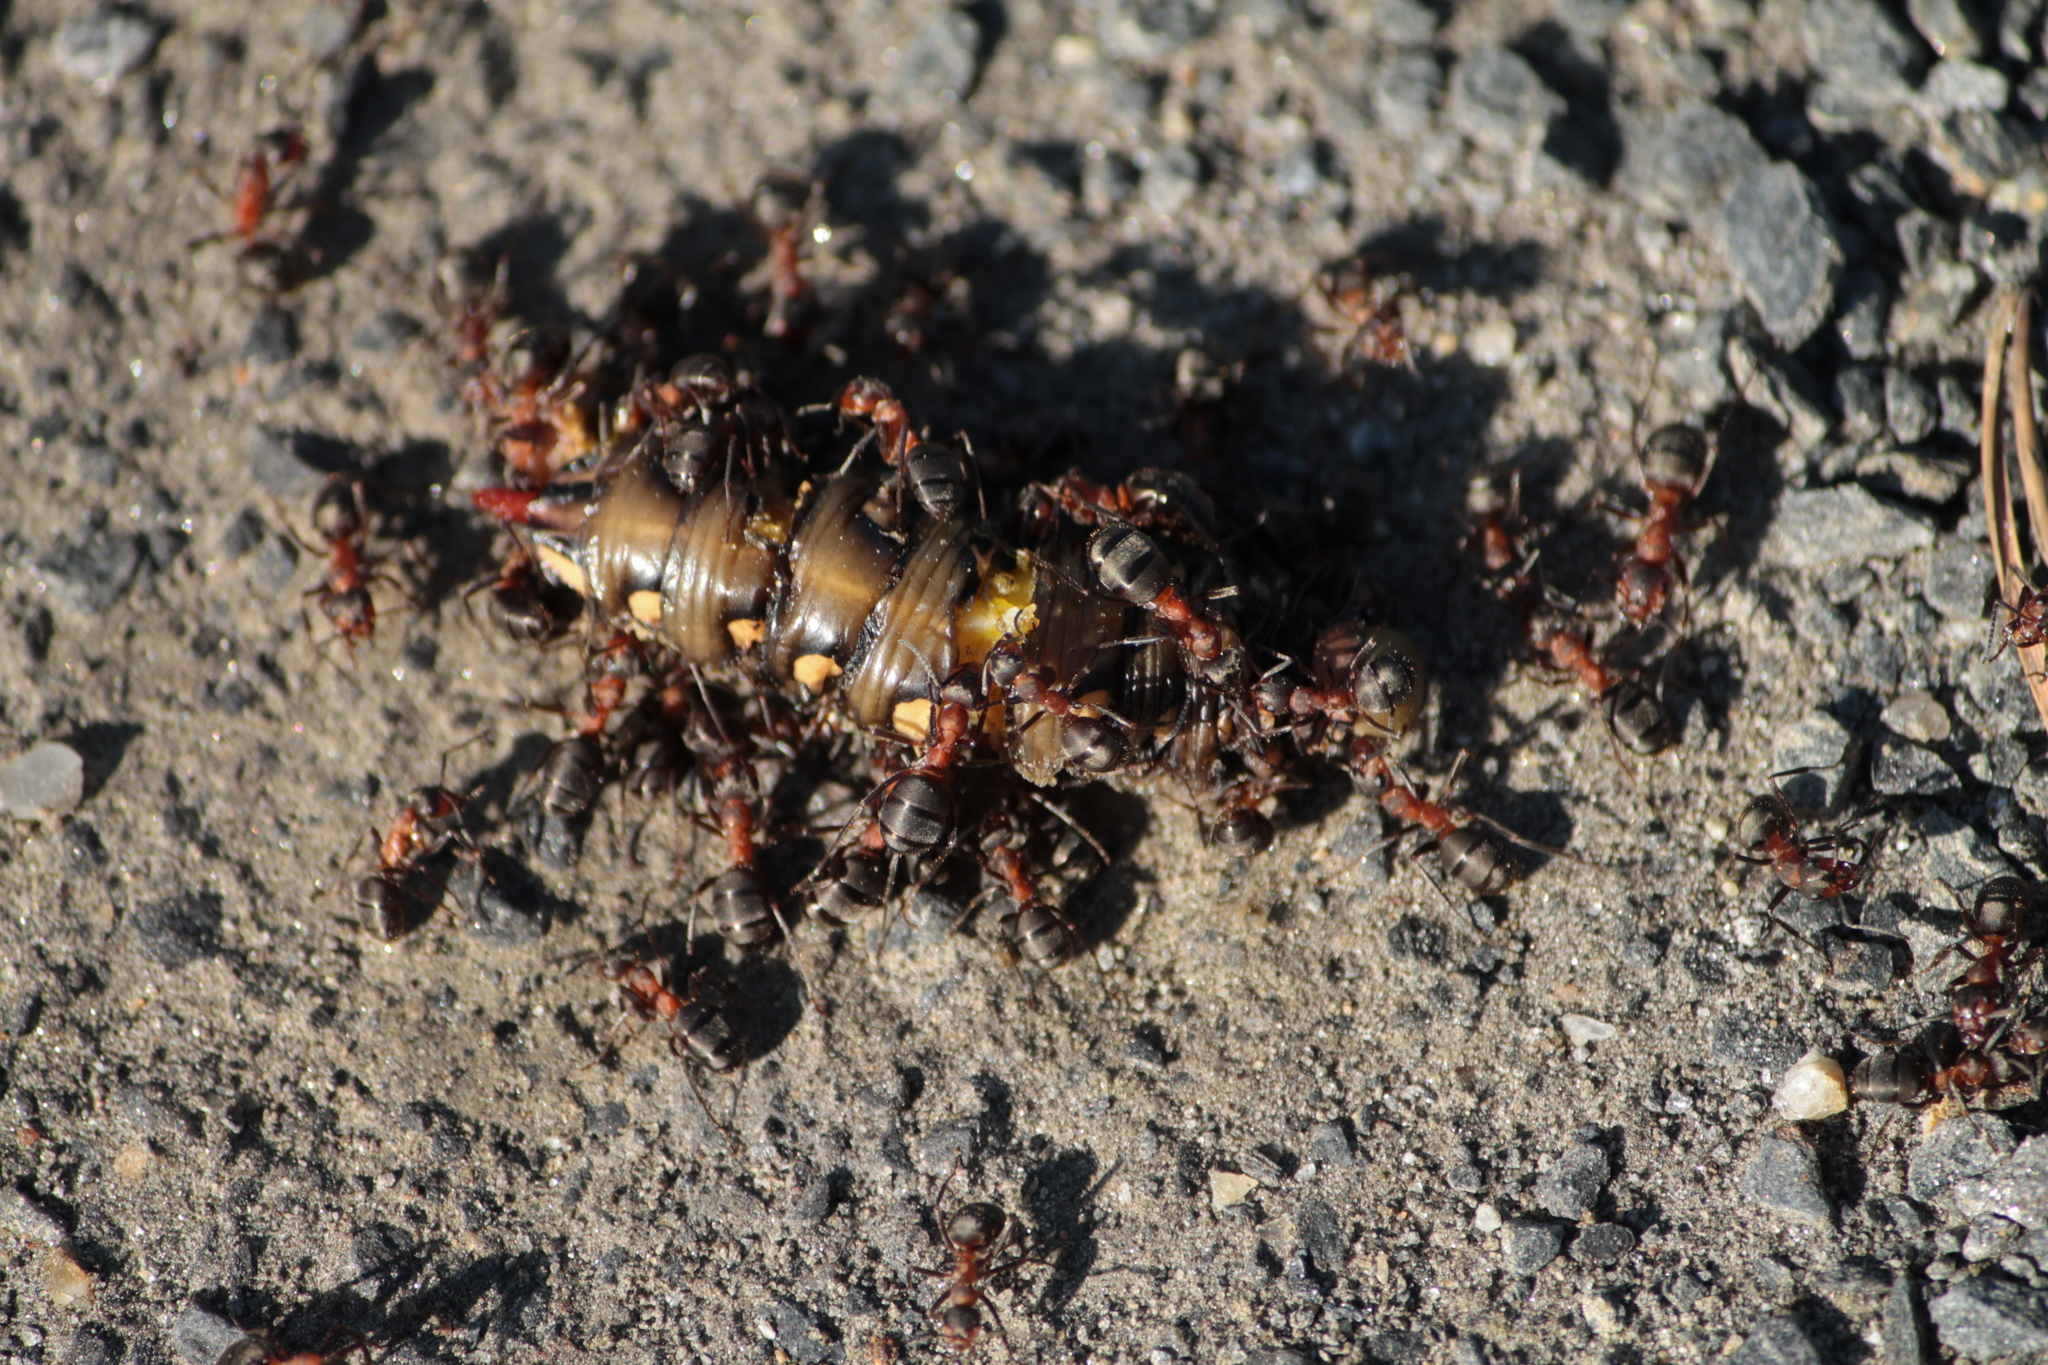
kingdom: Animalia
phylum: Arthropoda
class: Insecta
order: Lepidoptera
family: Sphingidae
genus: Hyles
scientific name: Hyles gallii
